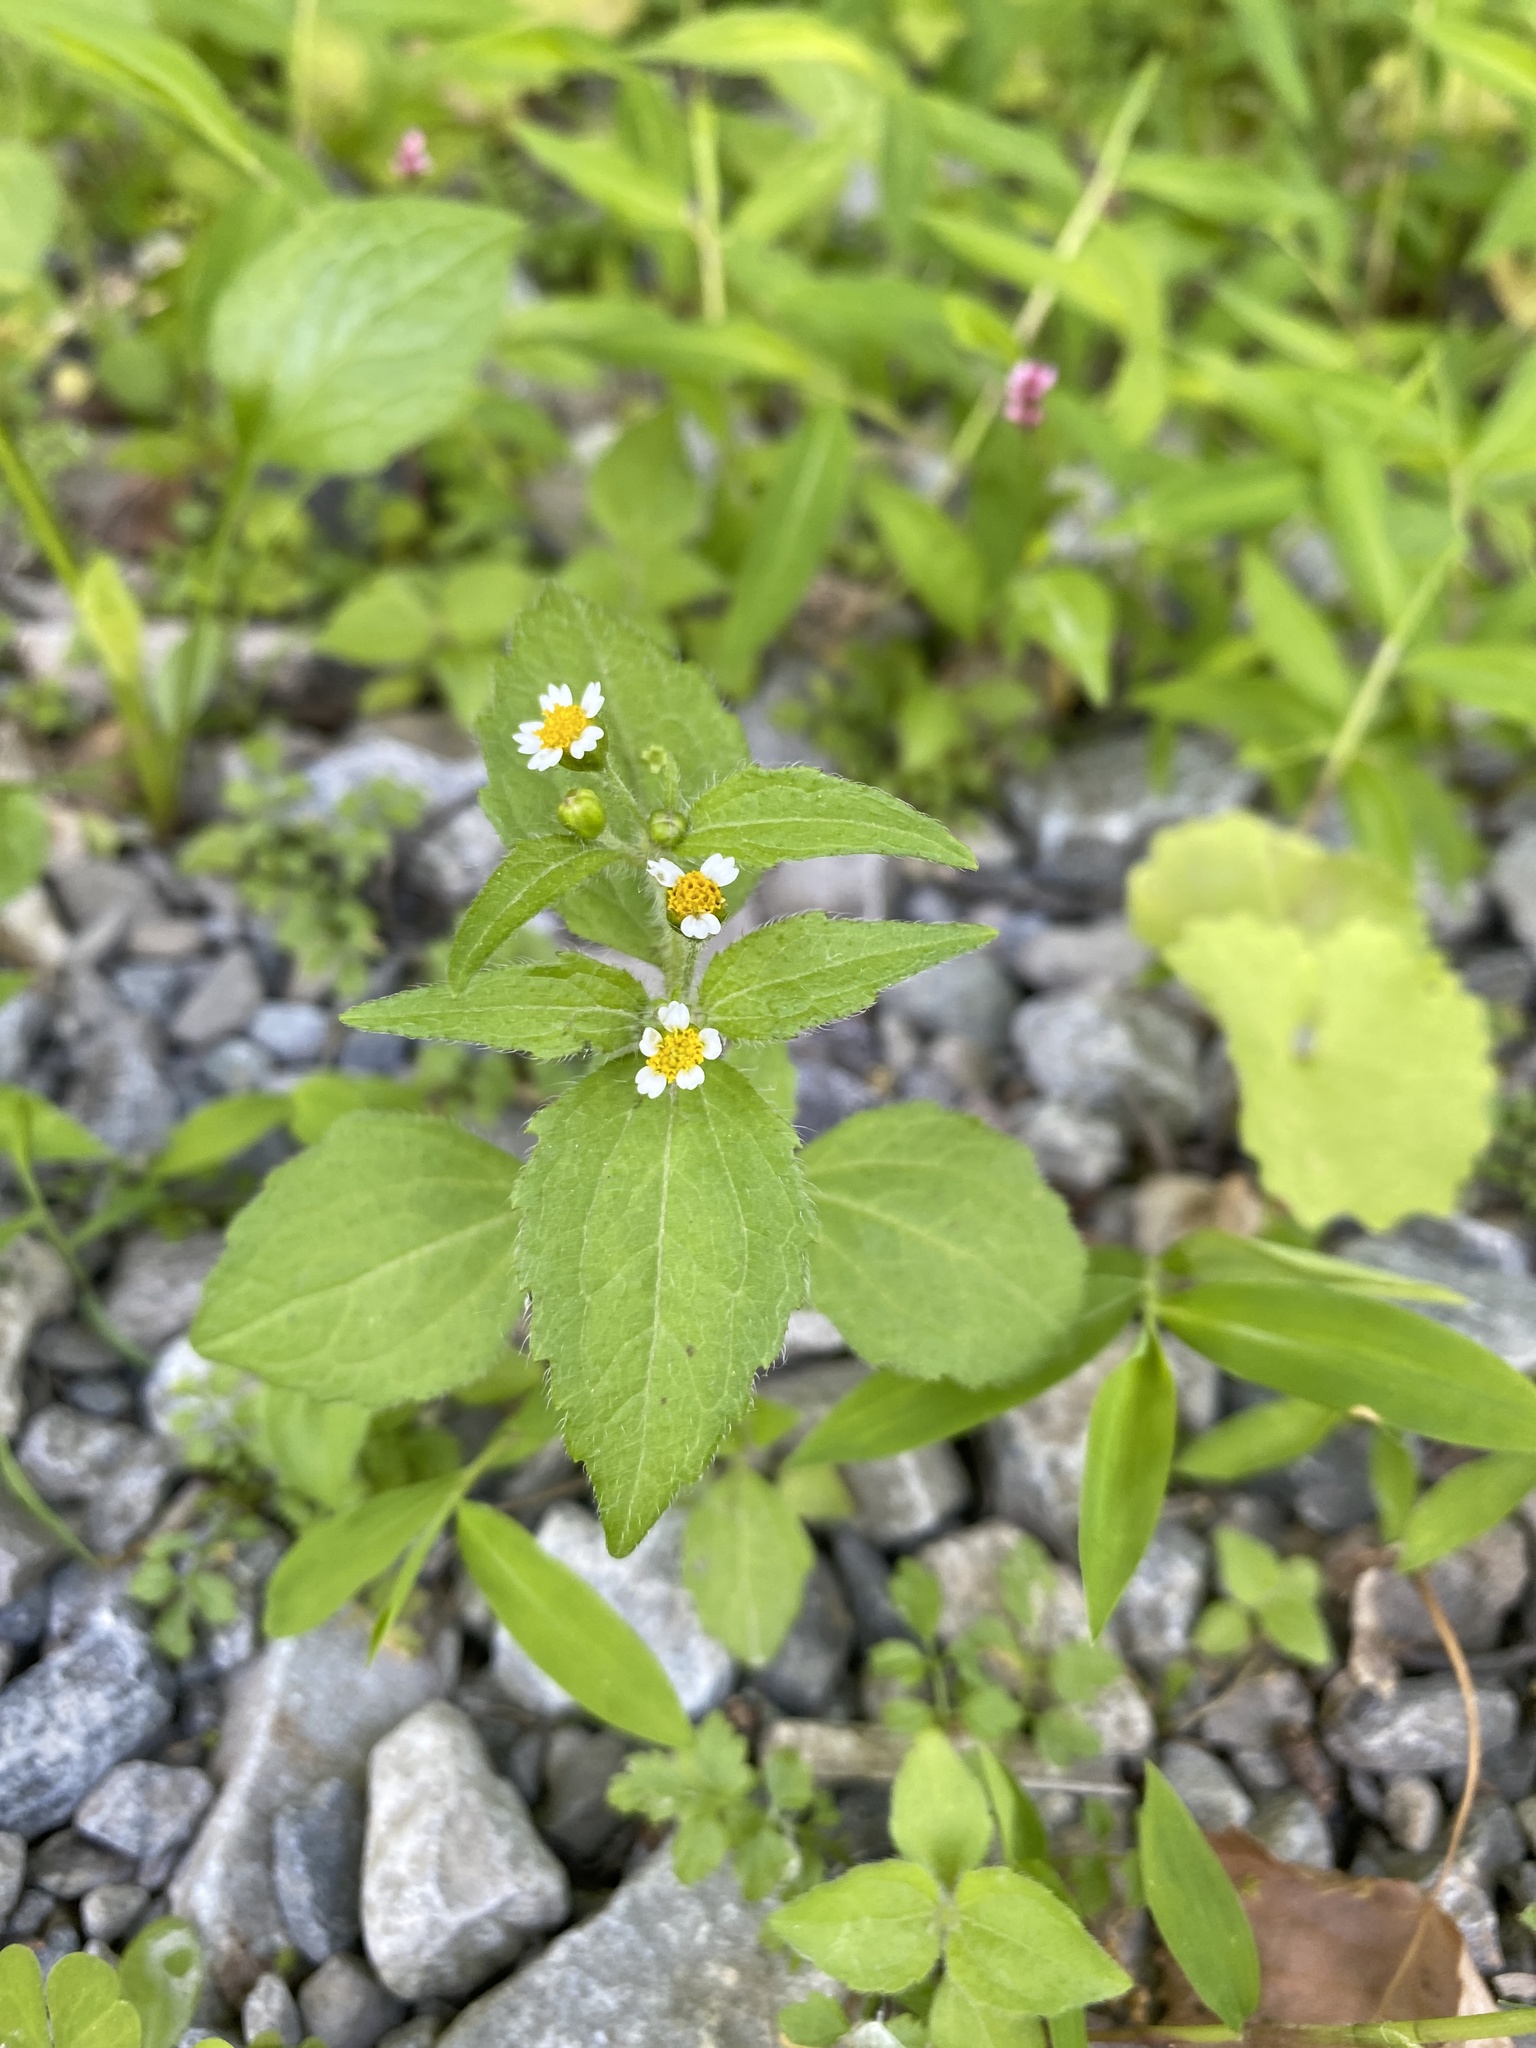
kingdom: Plantae
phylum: Tracheophyta
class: Magnoliopsida
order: Asterales
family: Asteraceae
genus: Galinsoga
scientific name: Galinsoga quadriradiata
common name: Shaggy soldier
